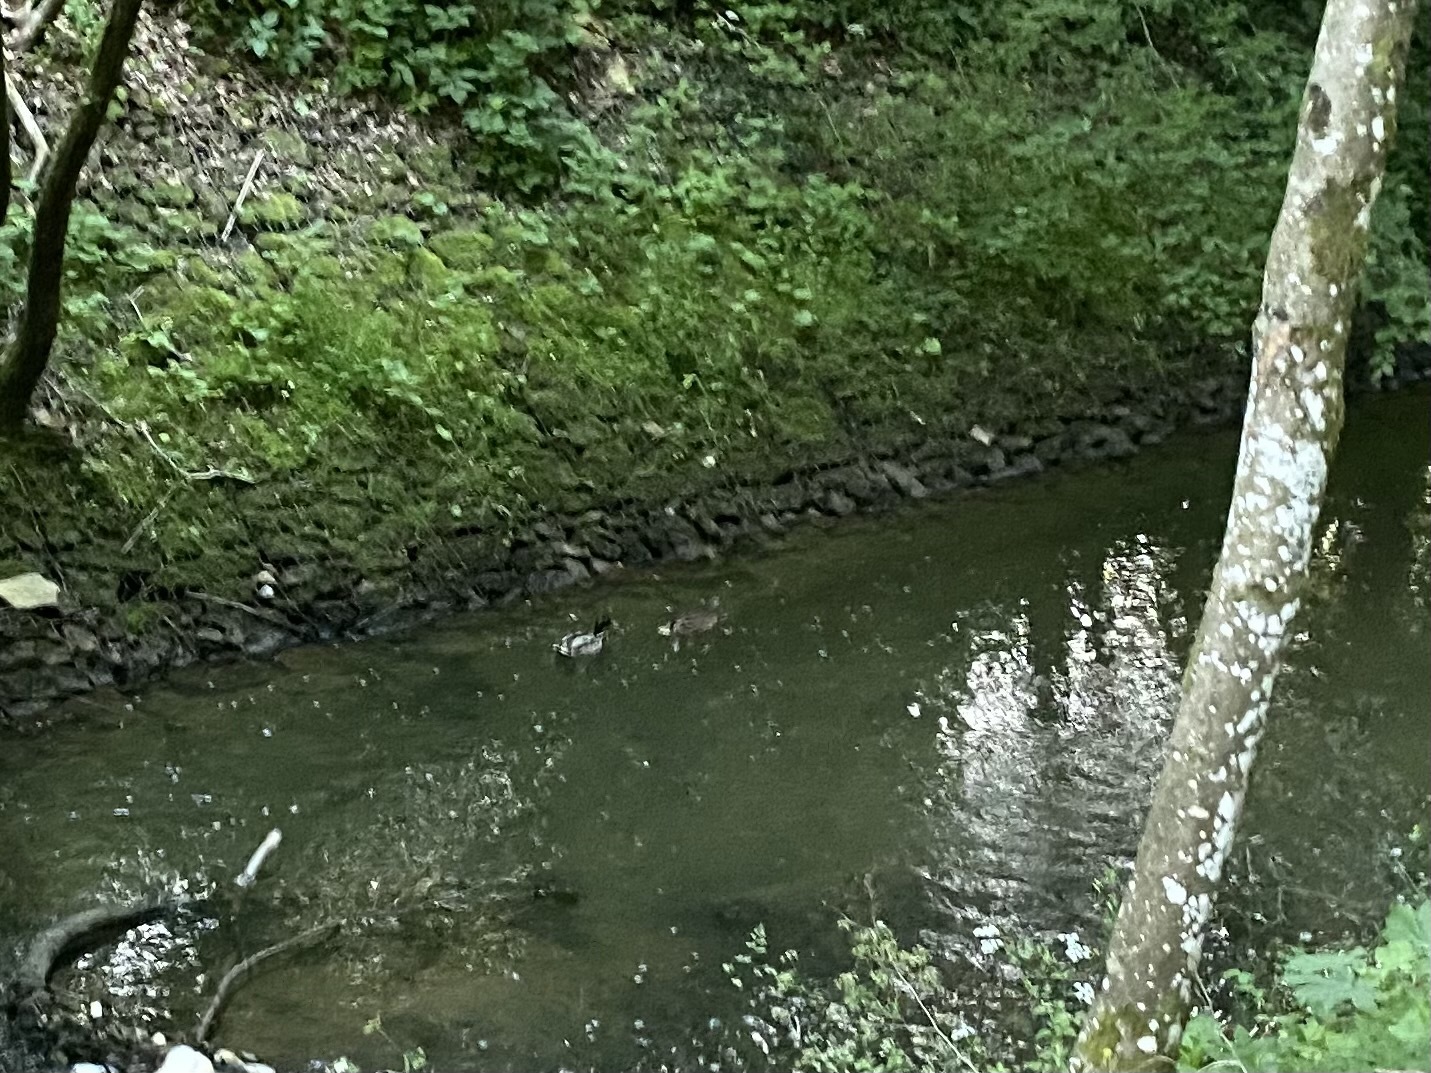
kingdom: Animalia
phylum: Chordata
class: Aves
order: Anseriformes
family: Anatidae
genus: Anas
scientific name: Anas platyrhynchos
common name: Mallard
